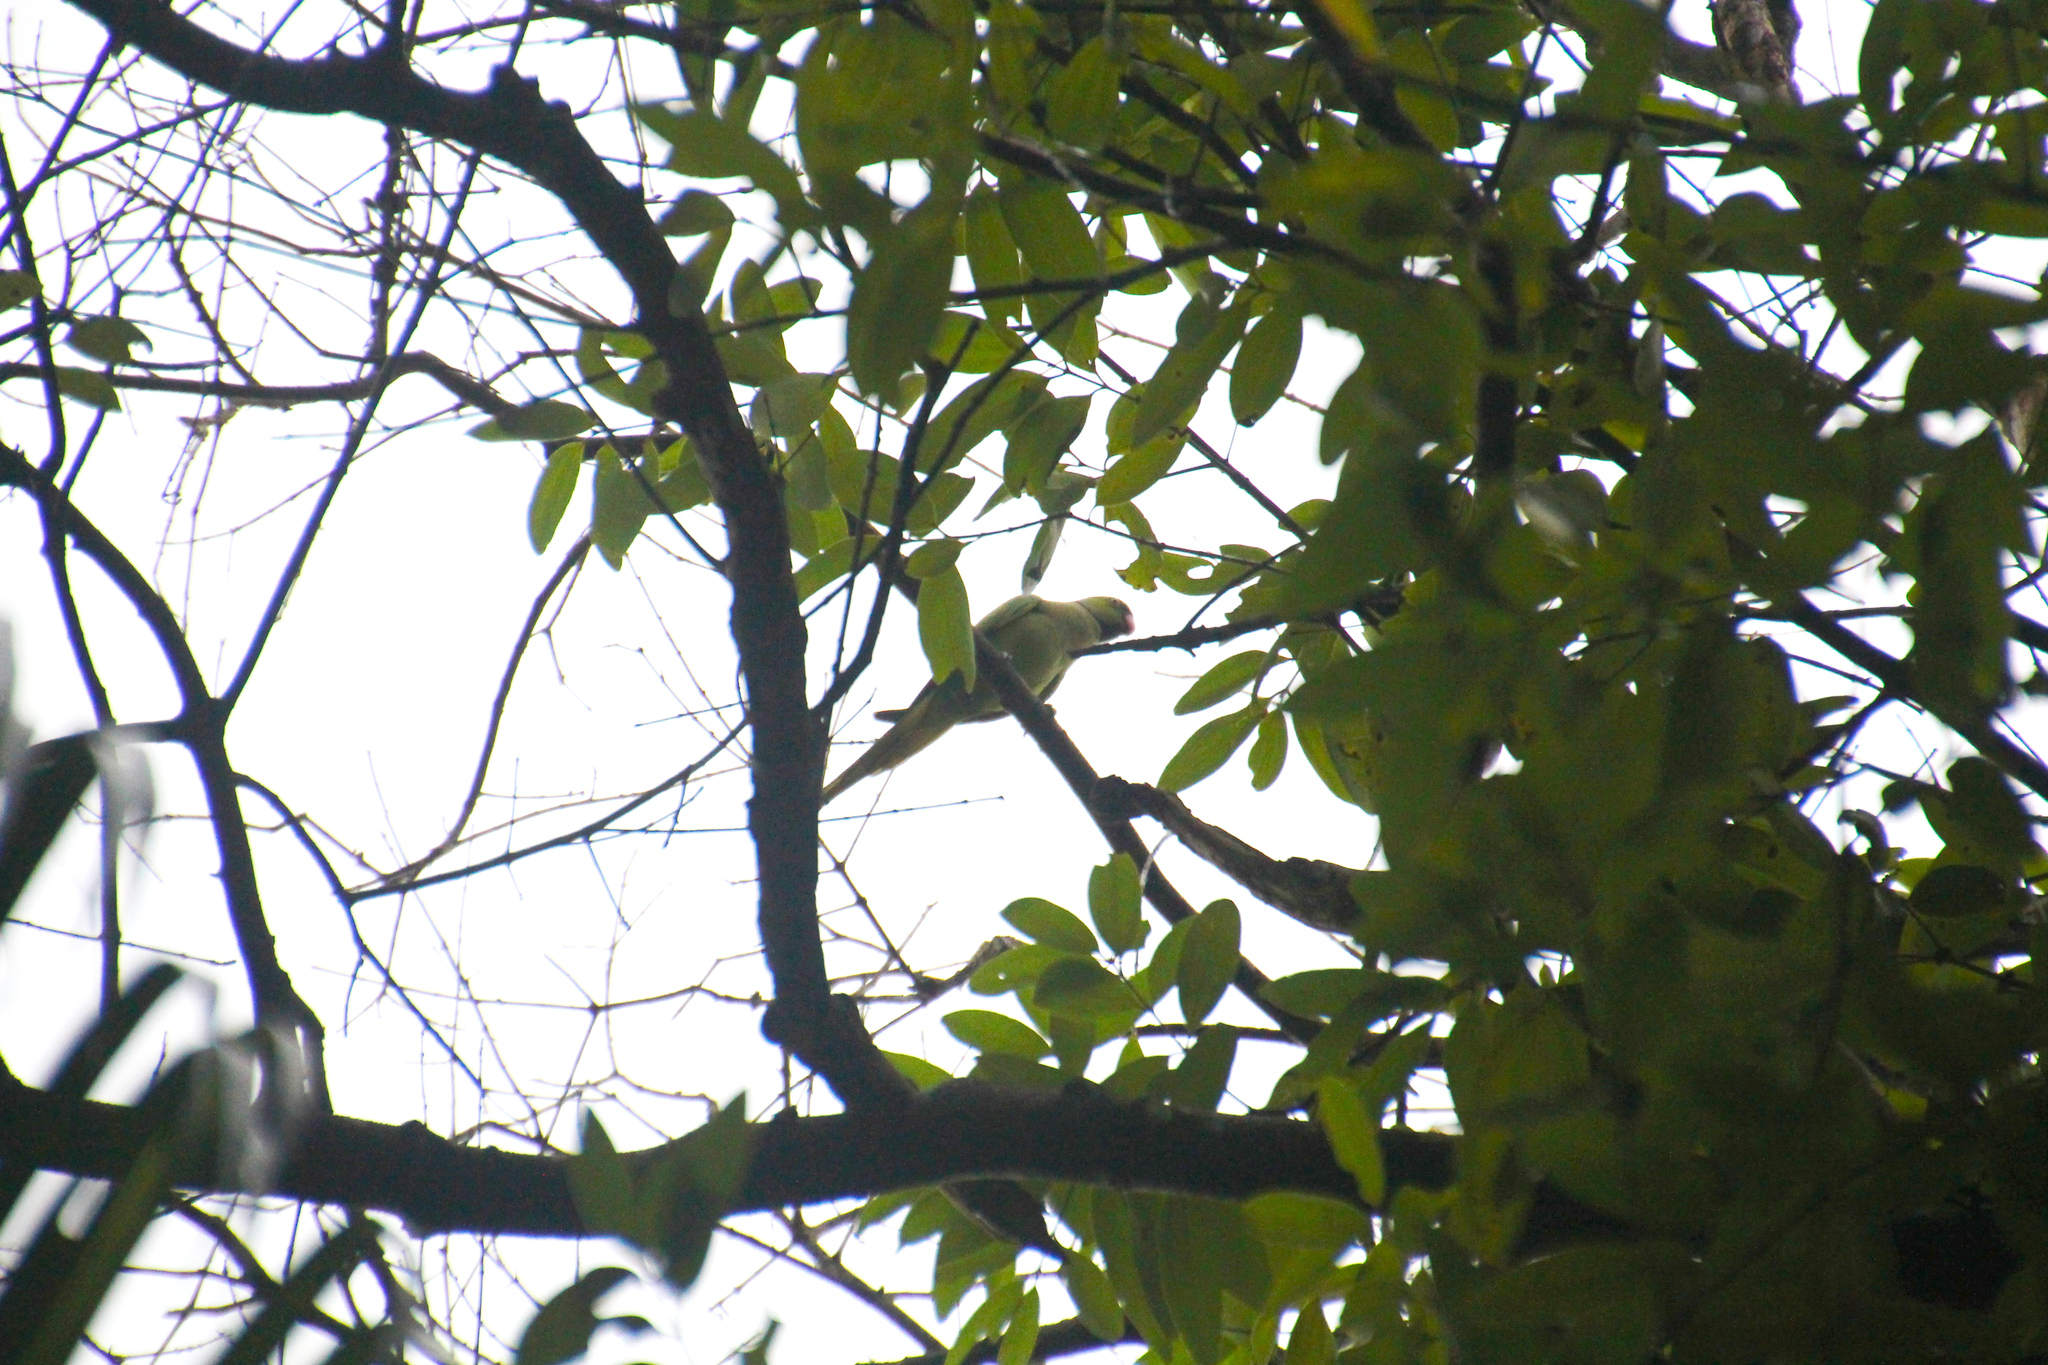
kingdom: Animalia
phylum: Chordata
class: Aves
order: Psittaciformes
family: Psittacidae
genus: Psittacula
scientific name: Psittacula krameri
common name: Rose-ringed parakeet
